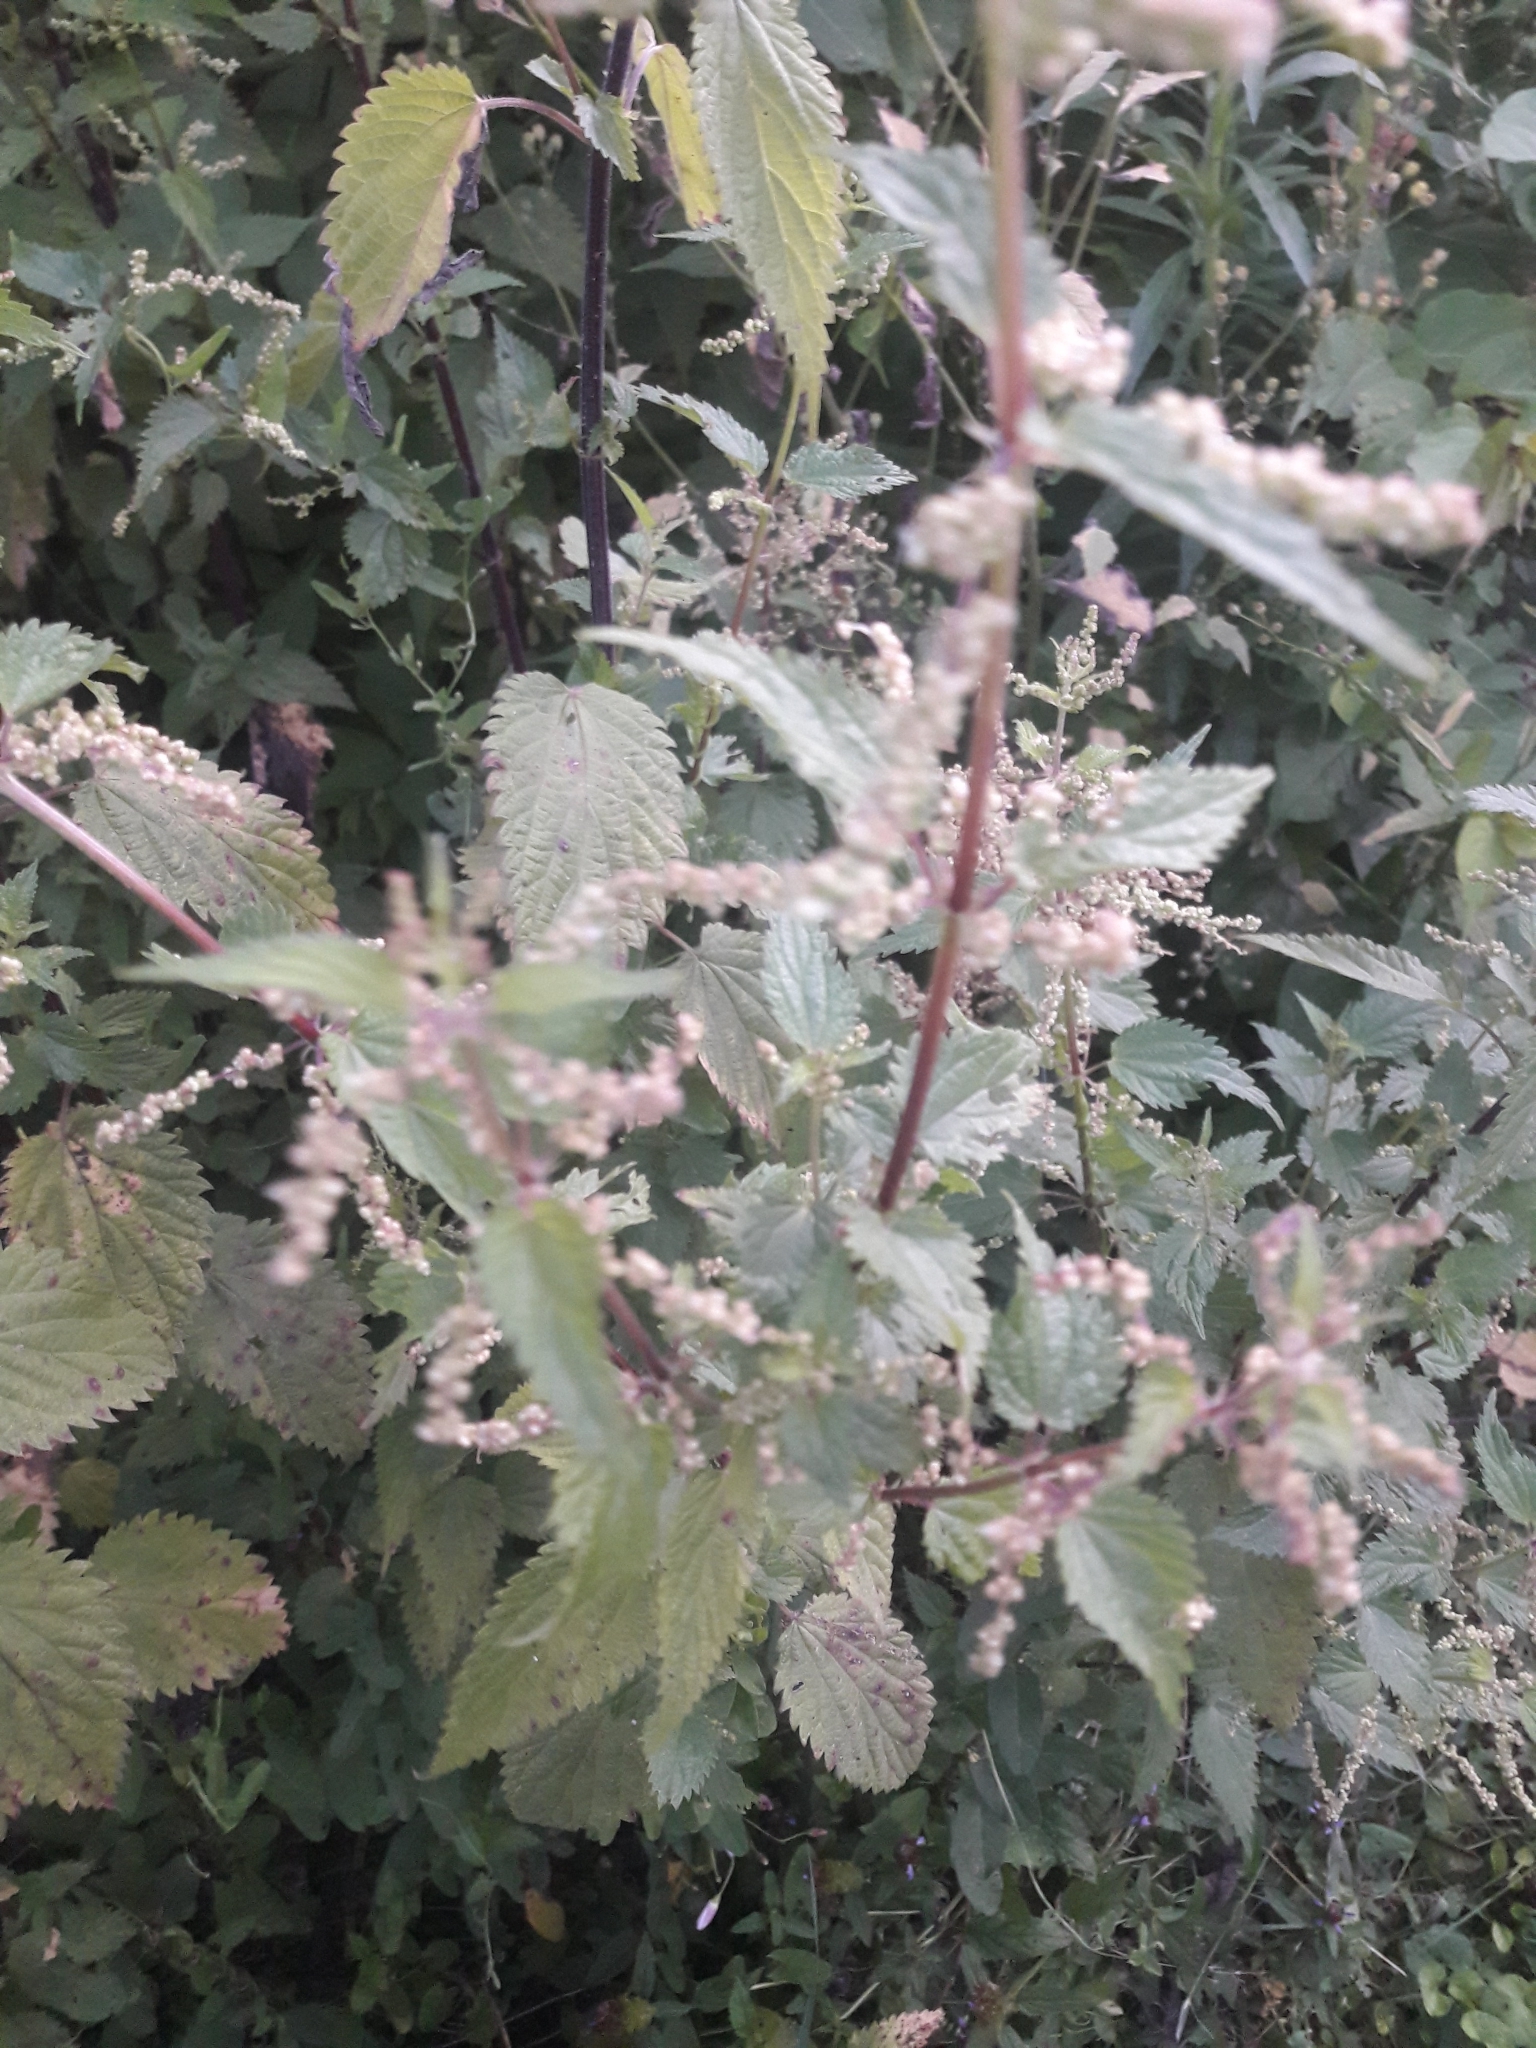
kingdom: Plantae
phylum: Tracheophyta
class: Magnoliopsida
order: Rosales
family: Urticaceae
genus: Urtica
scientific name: Urtica dioica
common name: Common nettle
